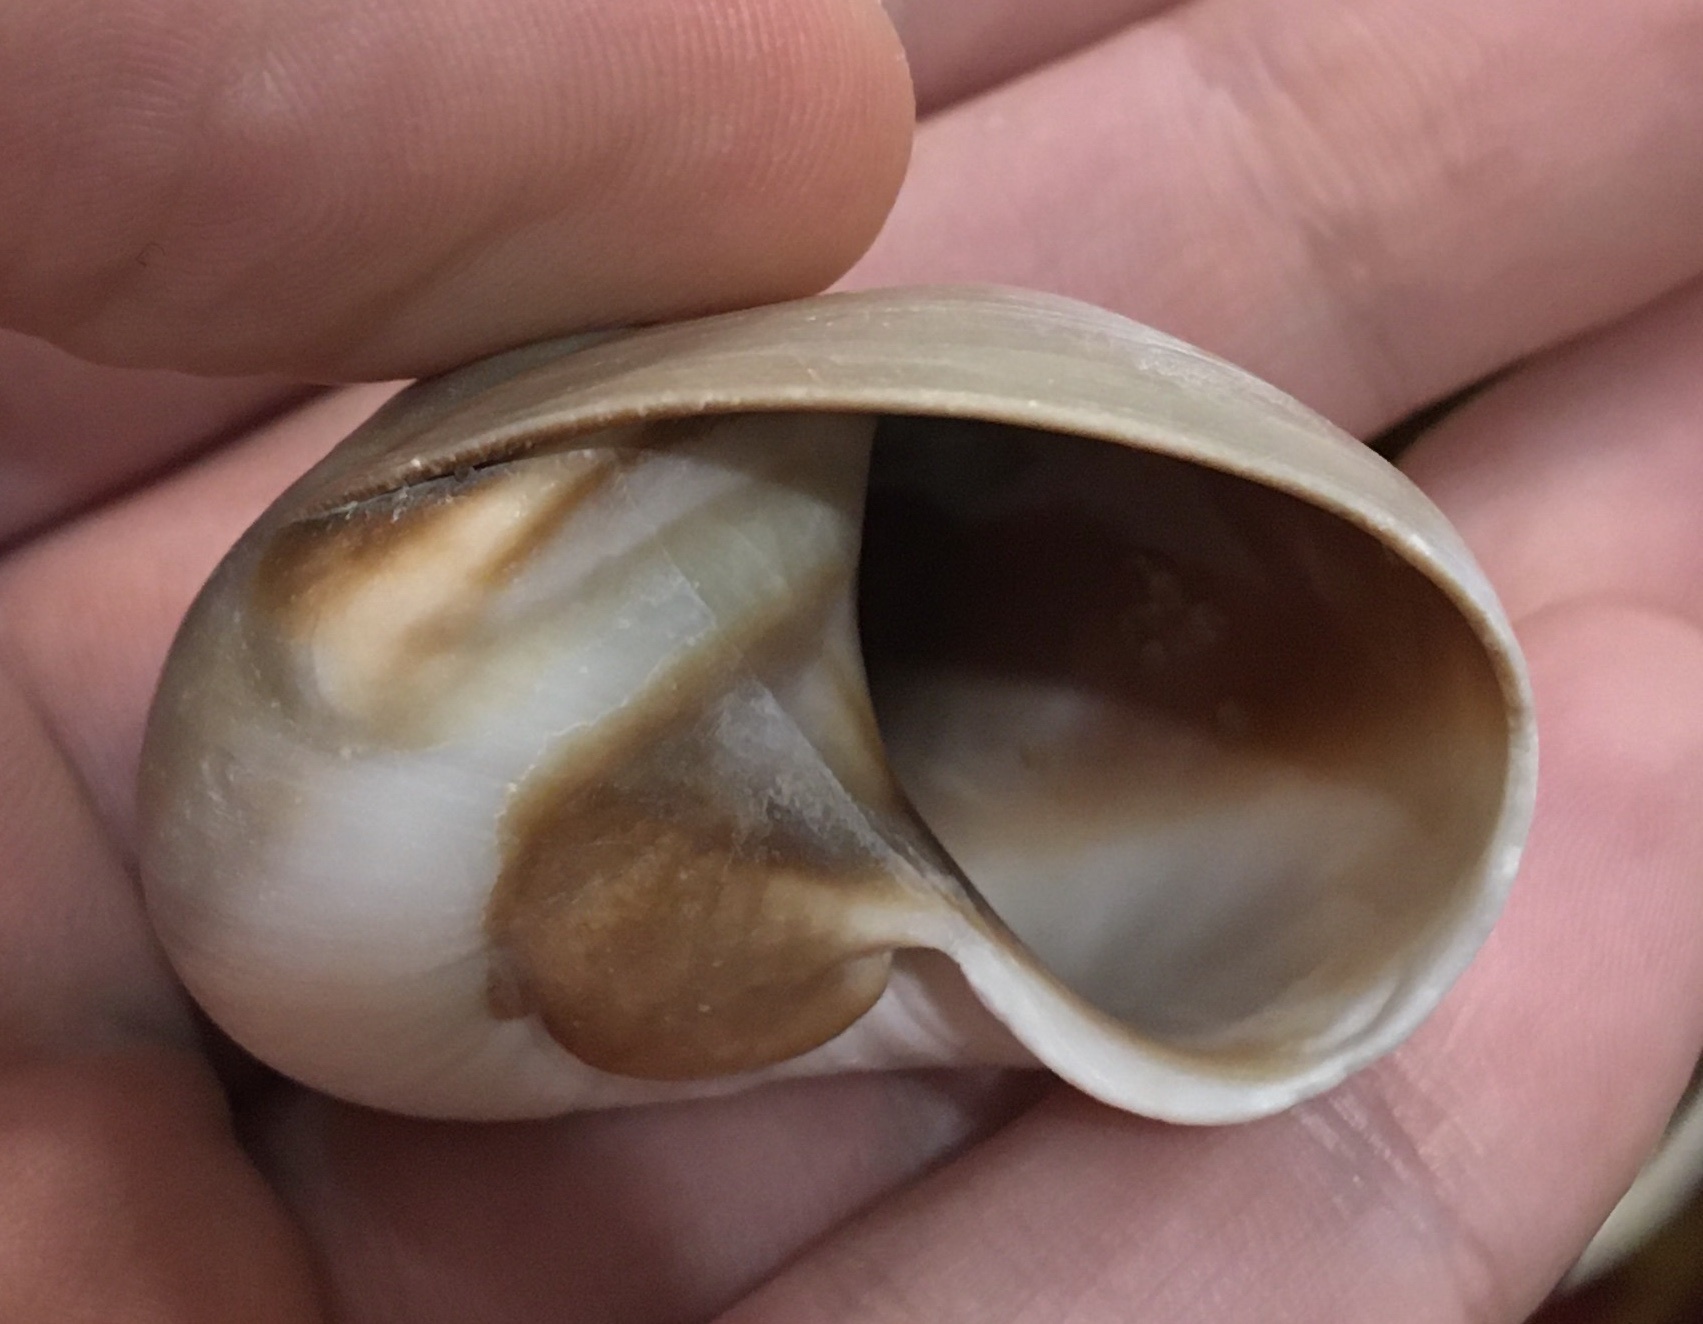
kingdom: Animalia
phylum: Mollusca
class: Gastropoda
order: Littorinimorpha
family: Naticidae
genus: Neverita
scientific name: Neverita delessertiana
